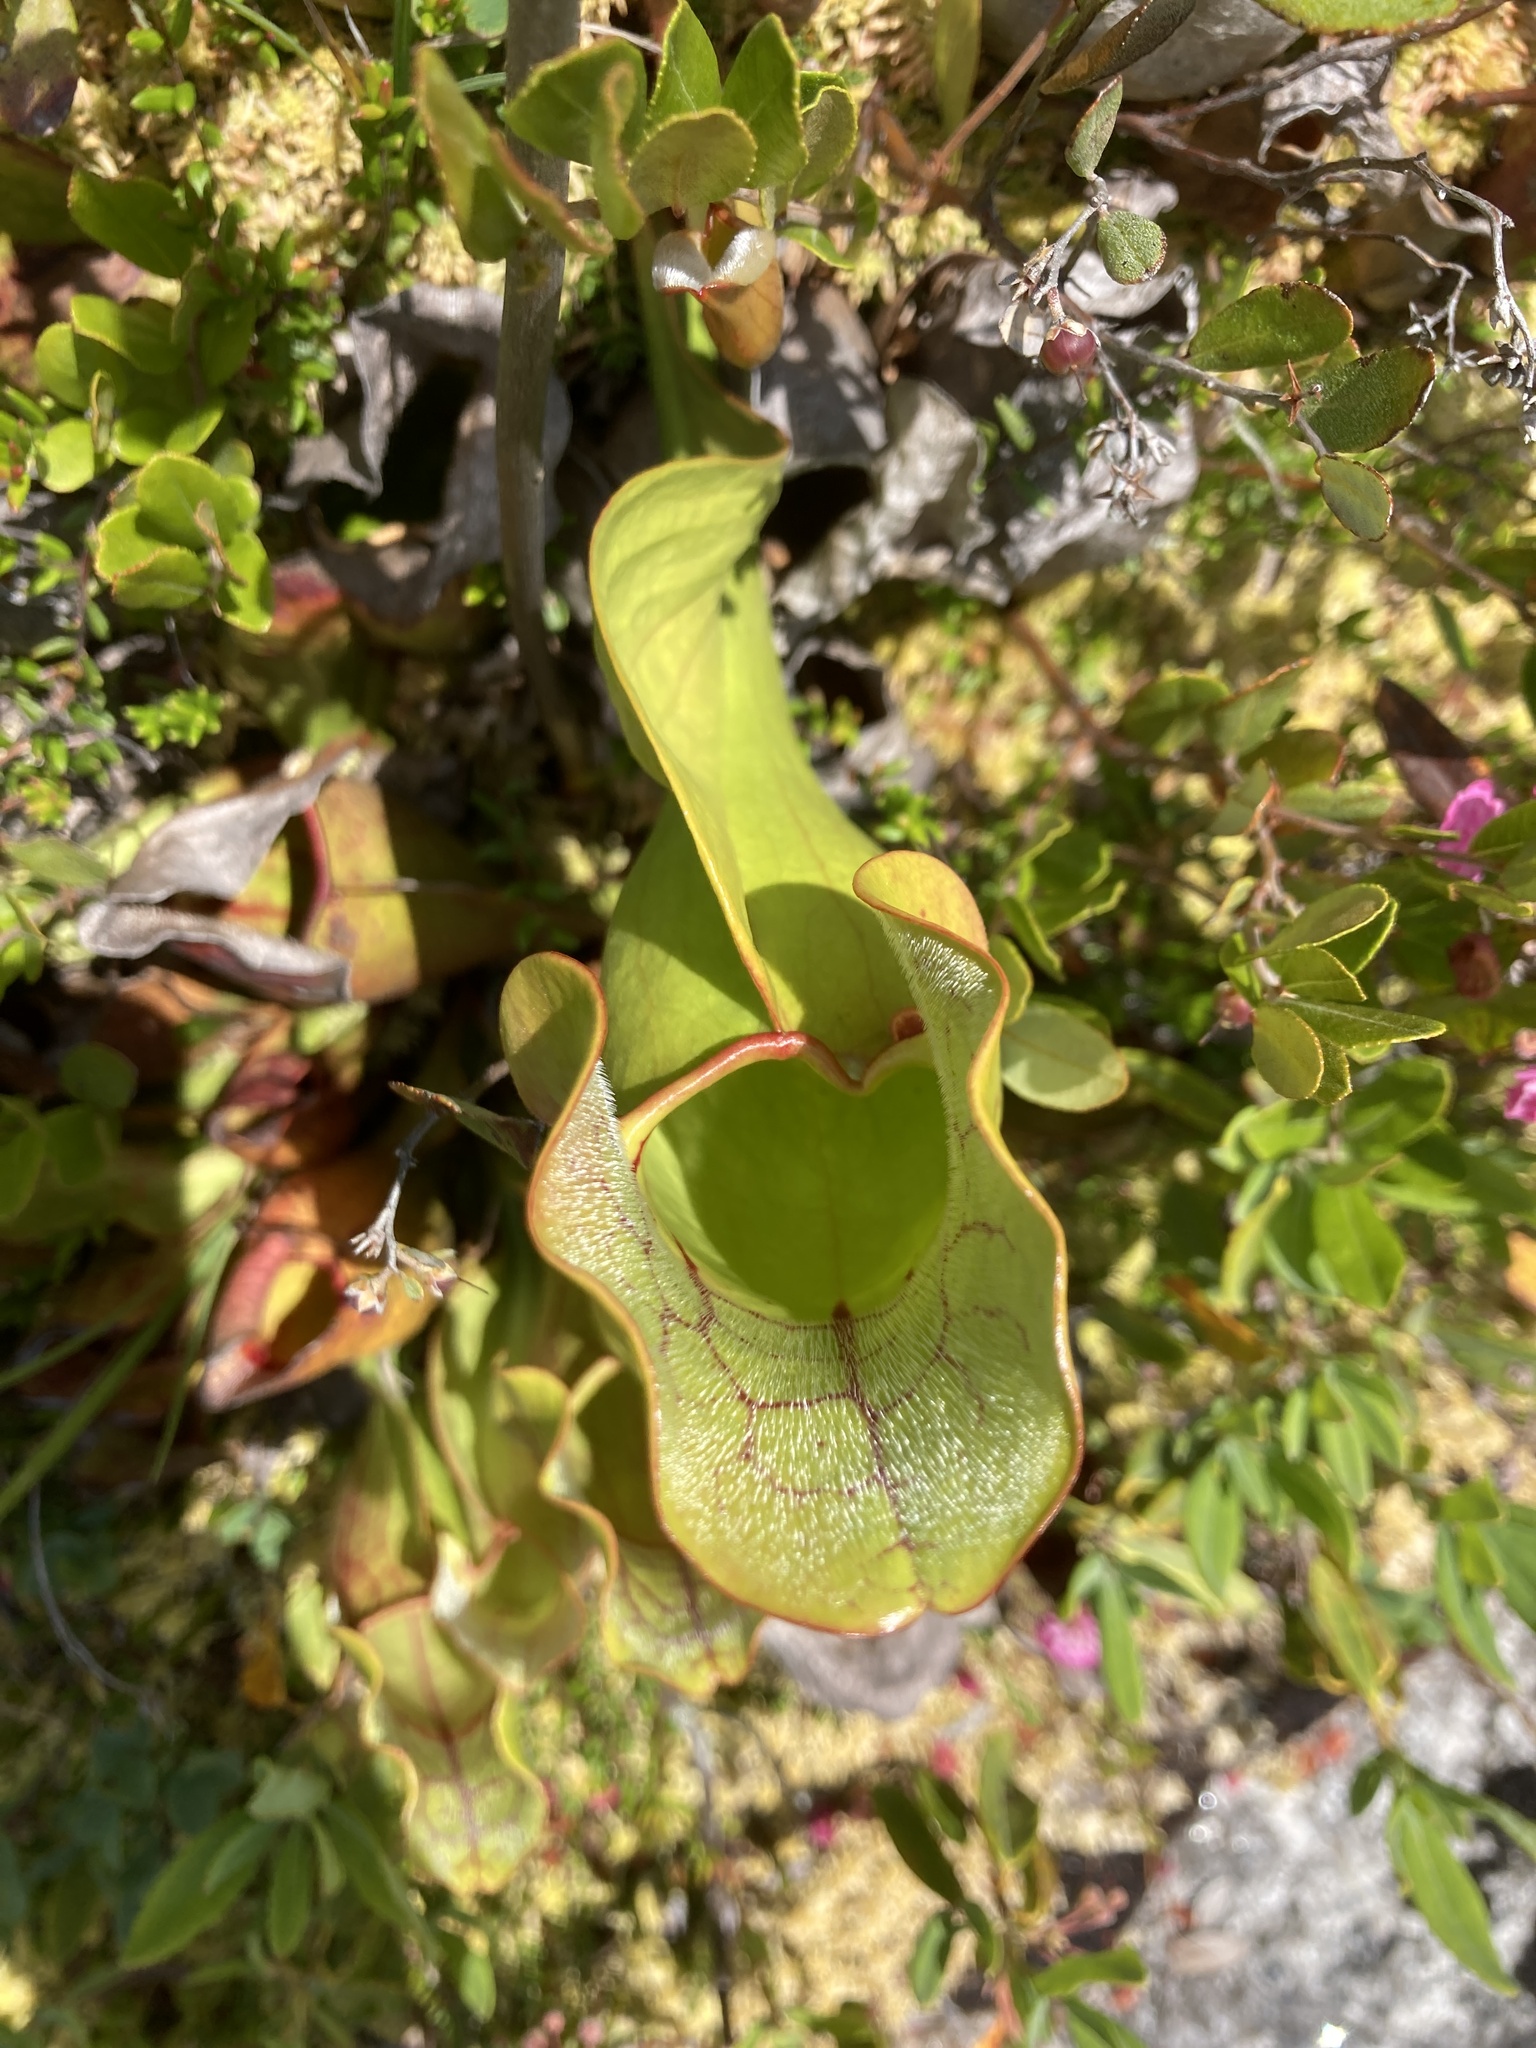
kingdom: Plantae
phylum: Tracheophyta
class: Magnoliopsida
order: Ericales
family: Sarraceniaceae
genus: Sarracenia
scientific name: Sarracenia purpurea
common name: Pitcherplant
